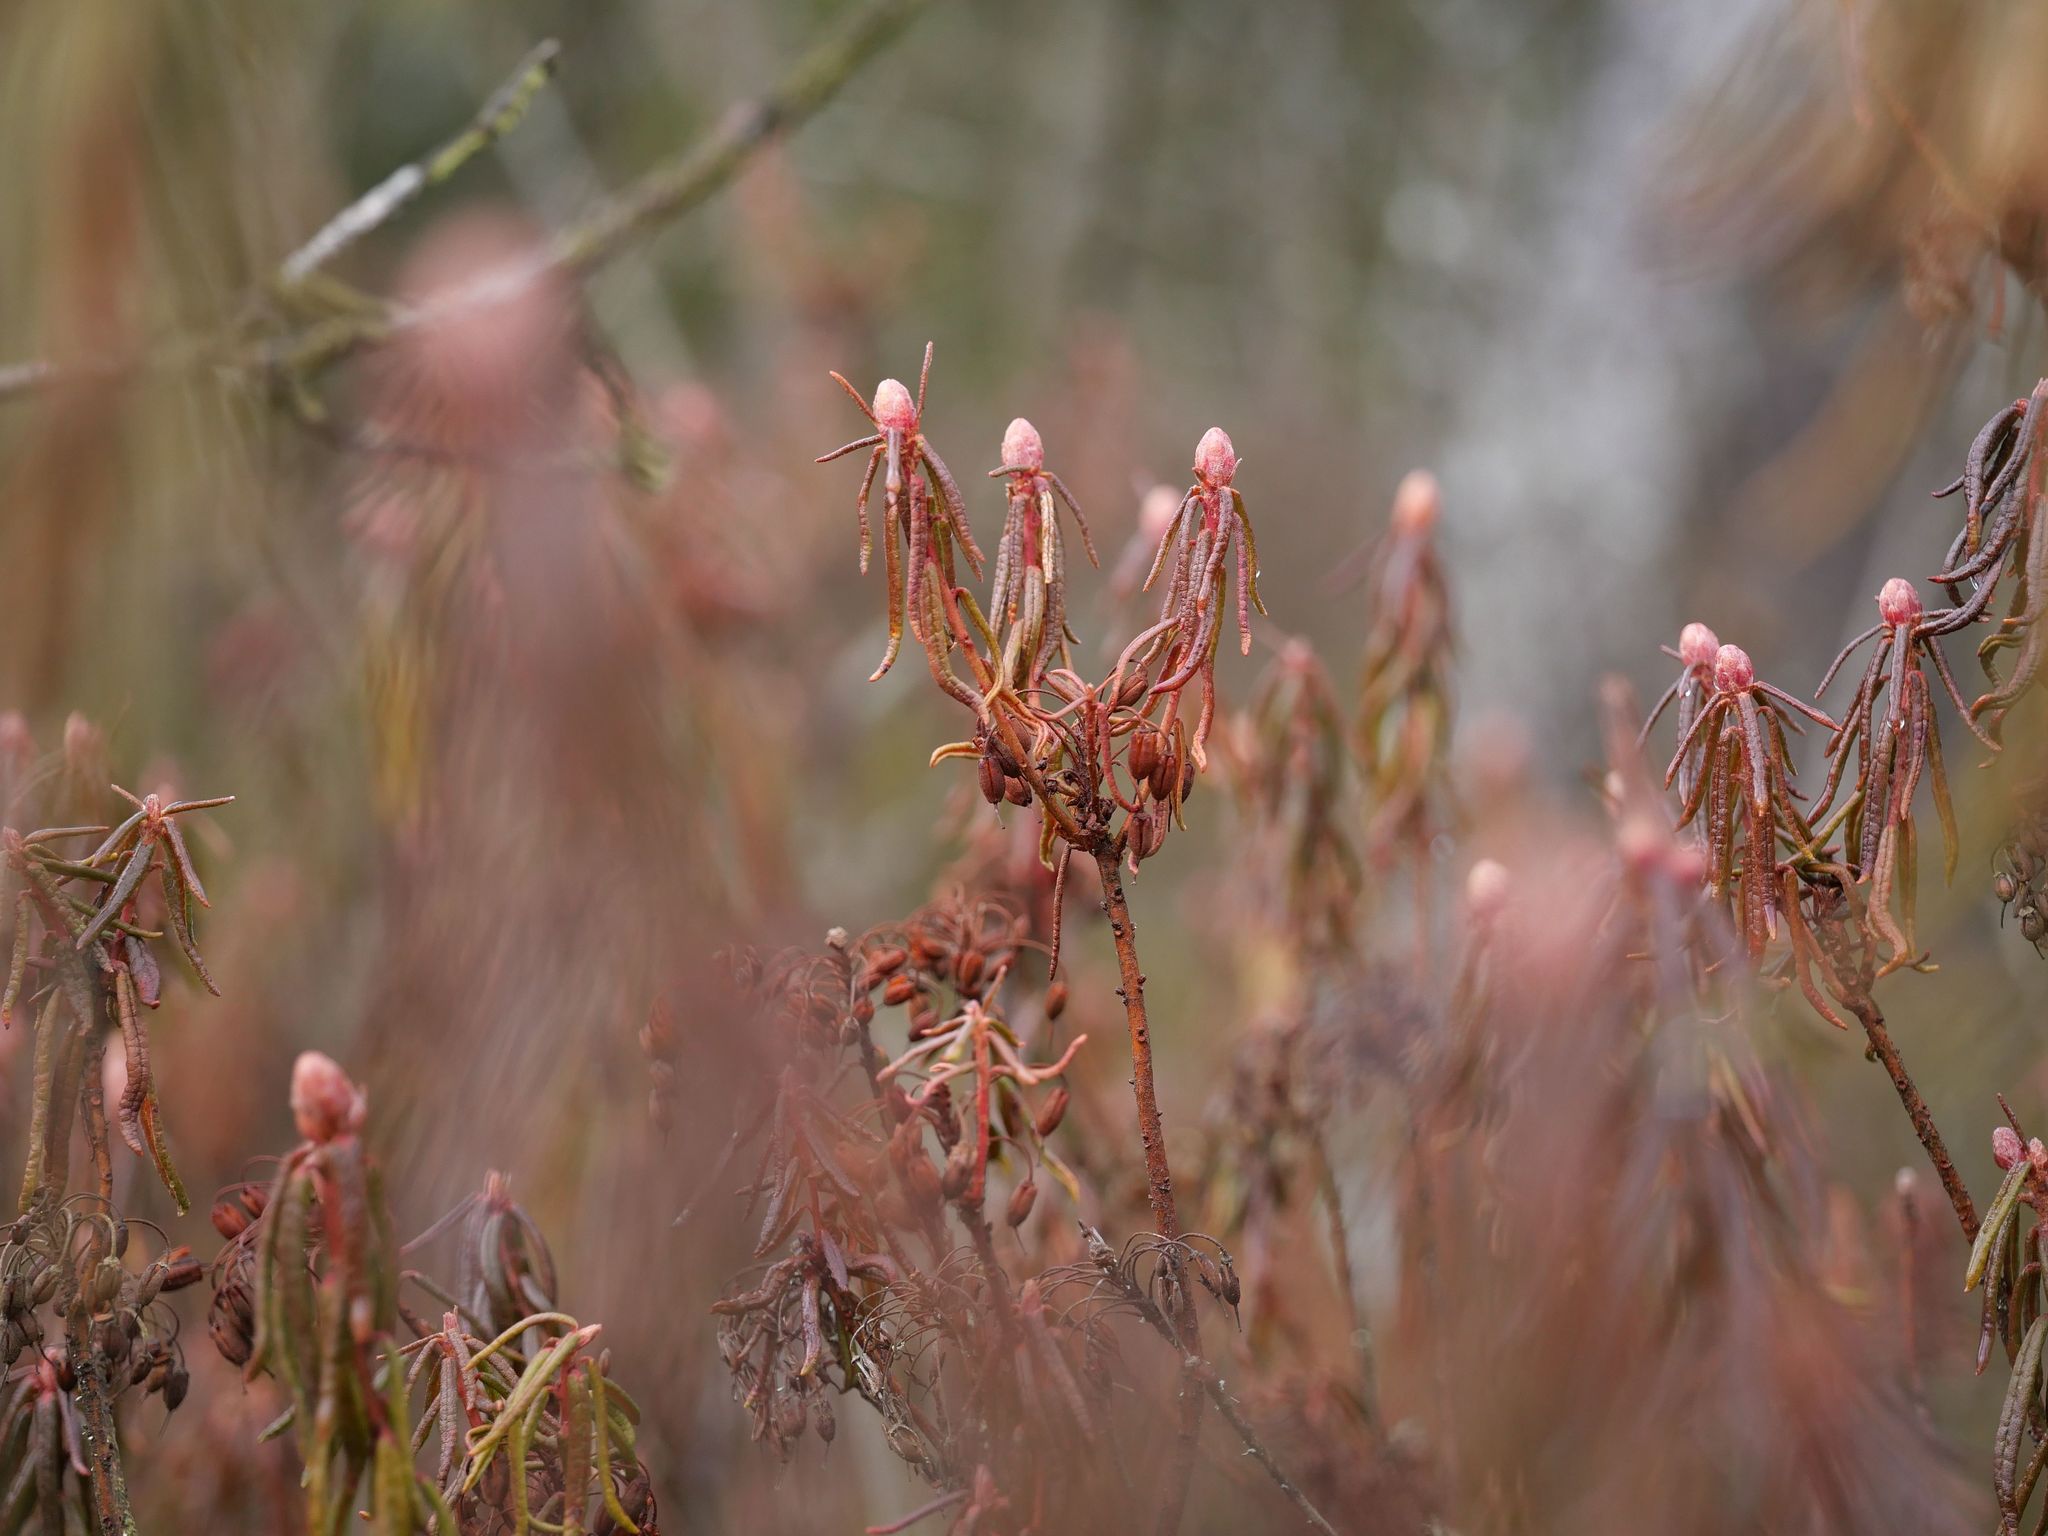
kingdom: Plantae
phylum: Tracheophyta
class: Magnoliopsida
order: Ericales
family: Ericaceae
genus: Rhododendron
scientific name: Rhododendron tomentosum
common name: Marsh labrador tea
